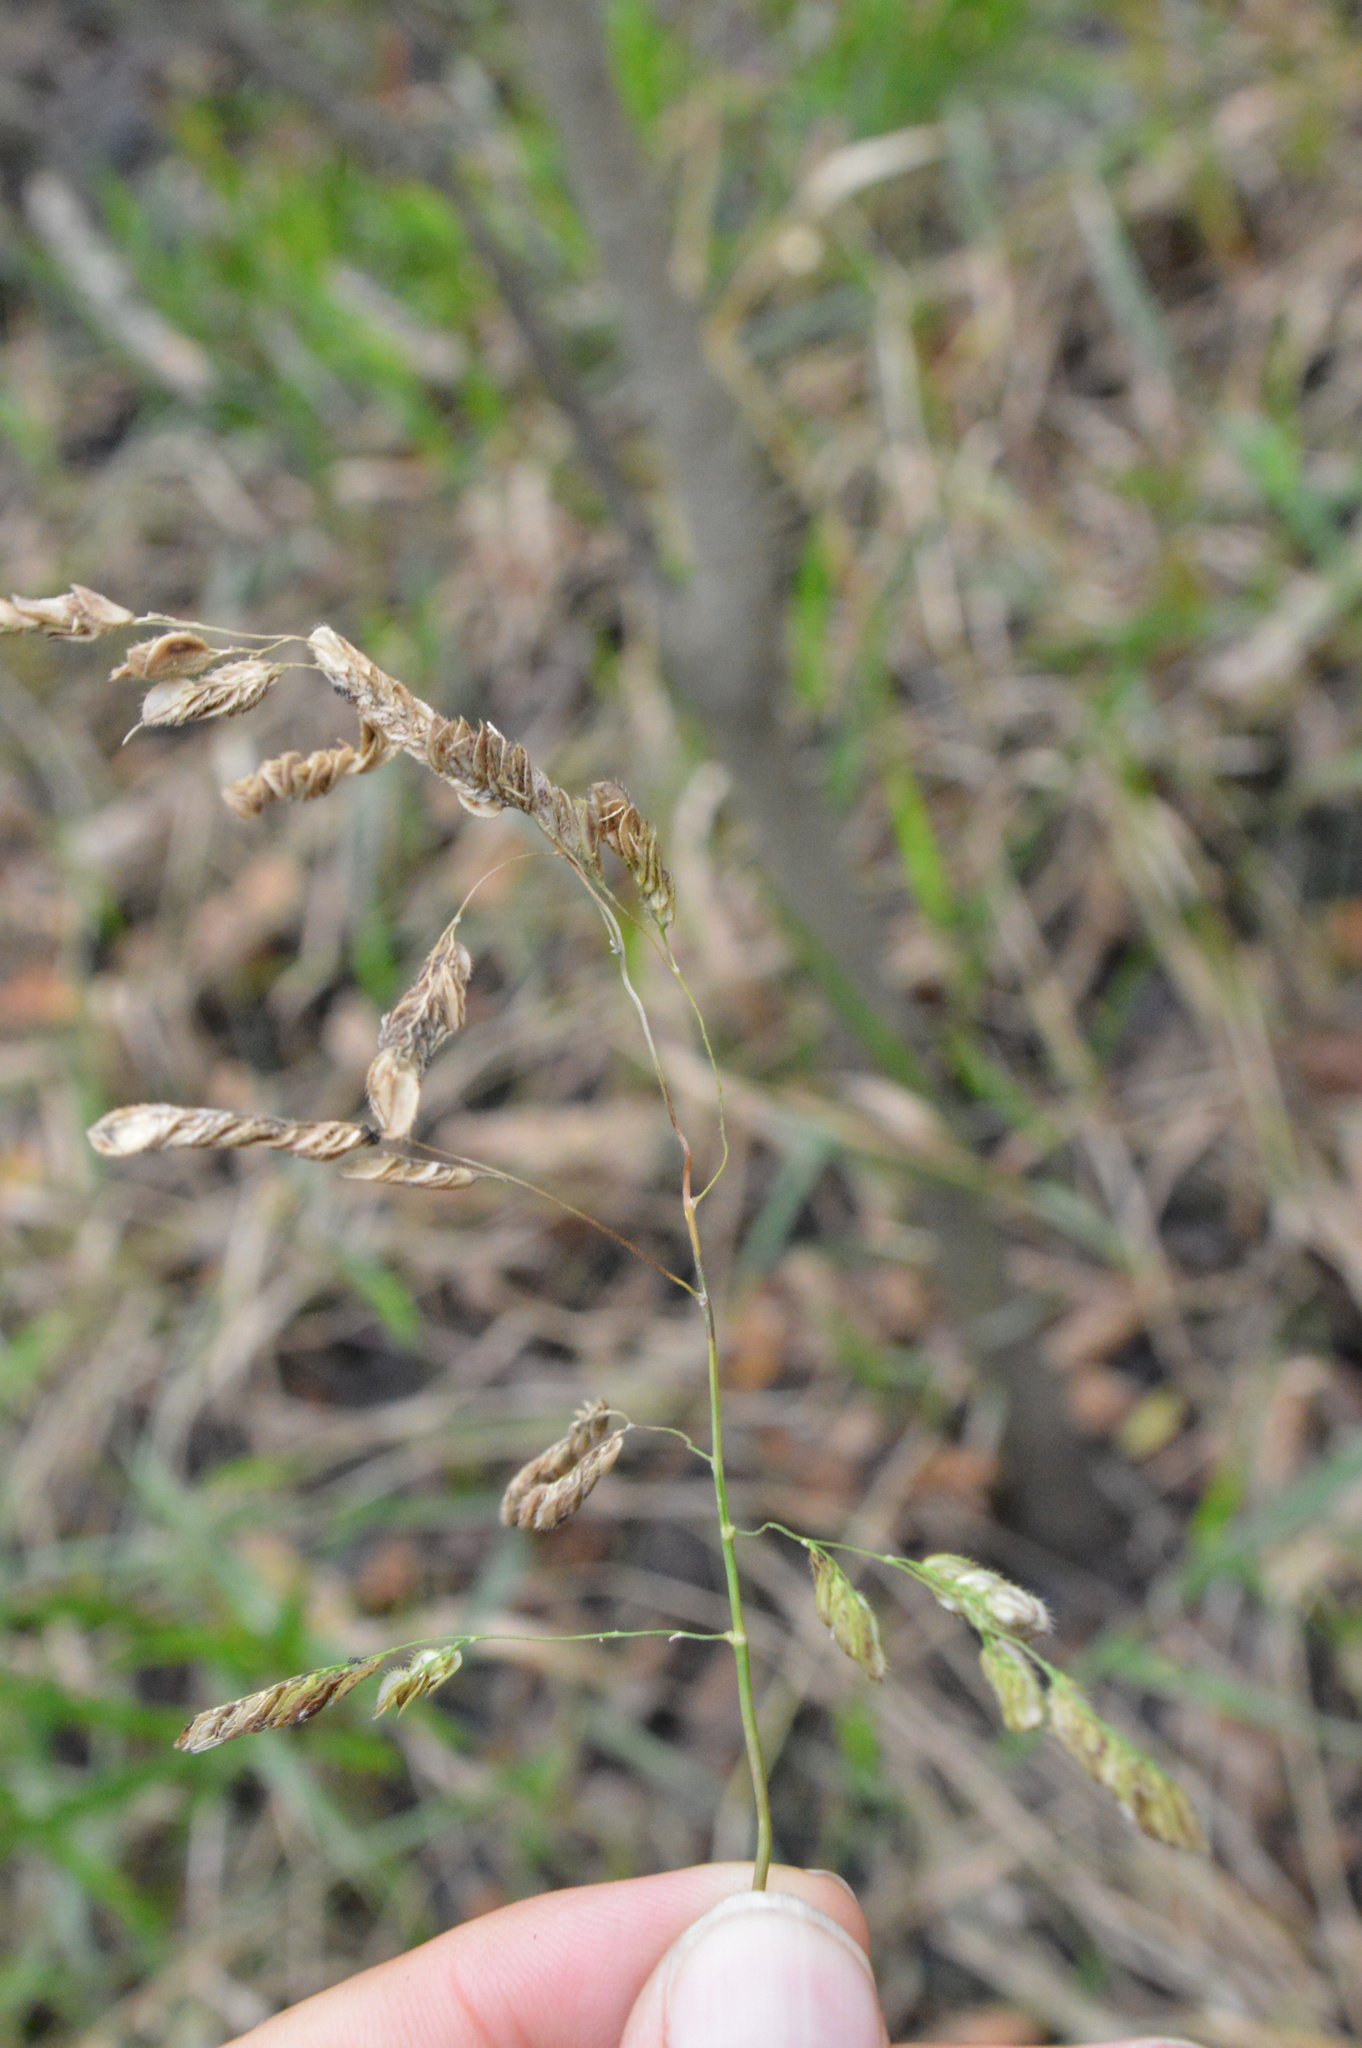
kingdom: Plantae
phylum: Tracheophyta
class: Liliopsida
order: Poales
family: Poaceae
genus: Leersia
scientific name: Leersia lenticularis
